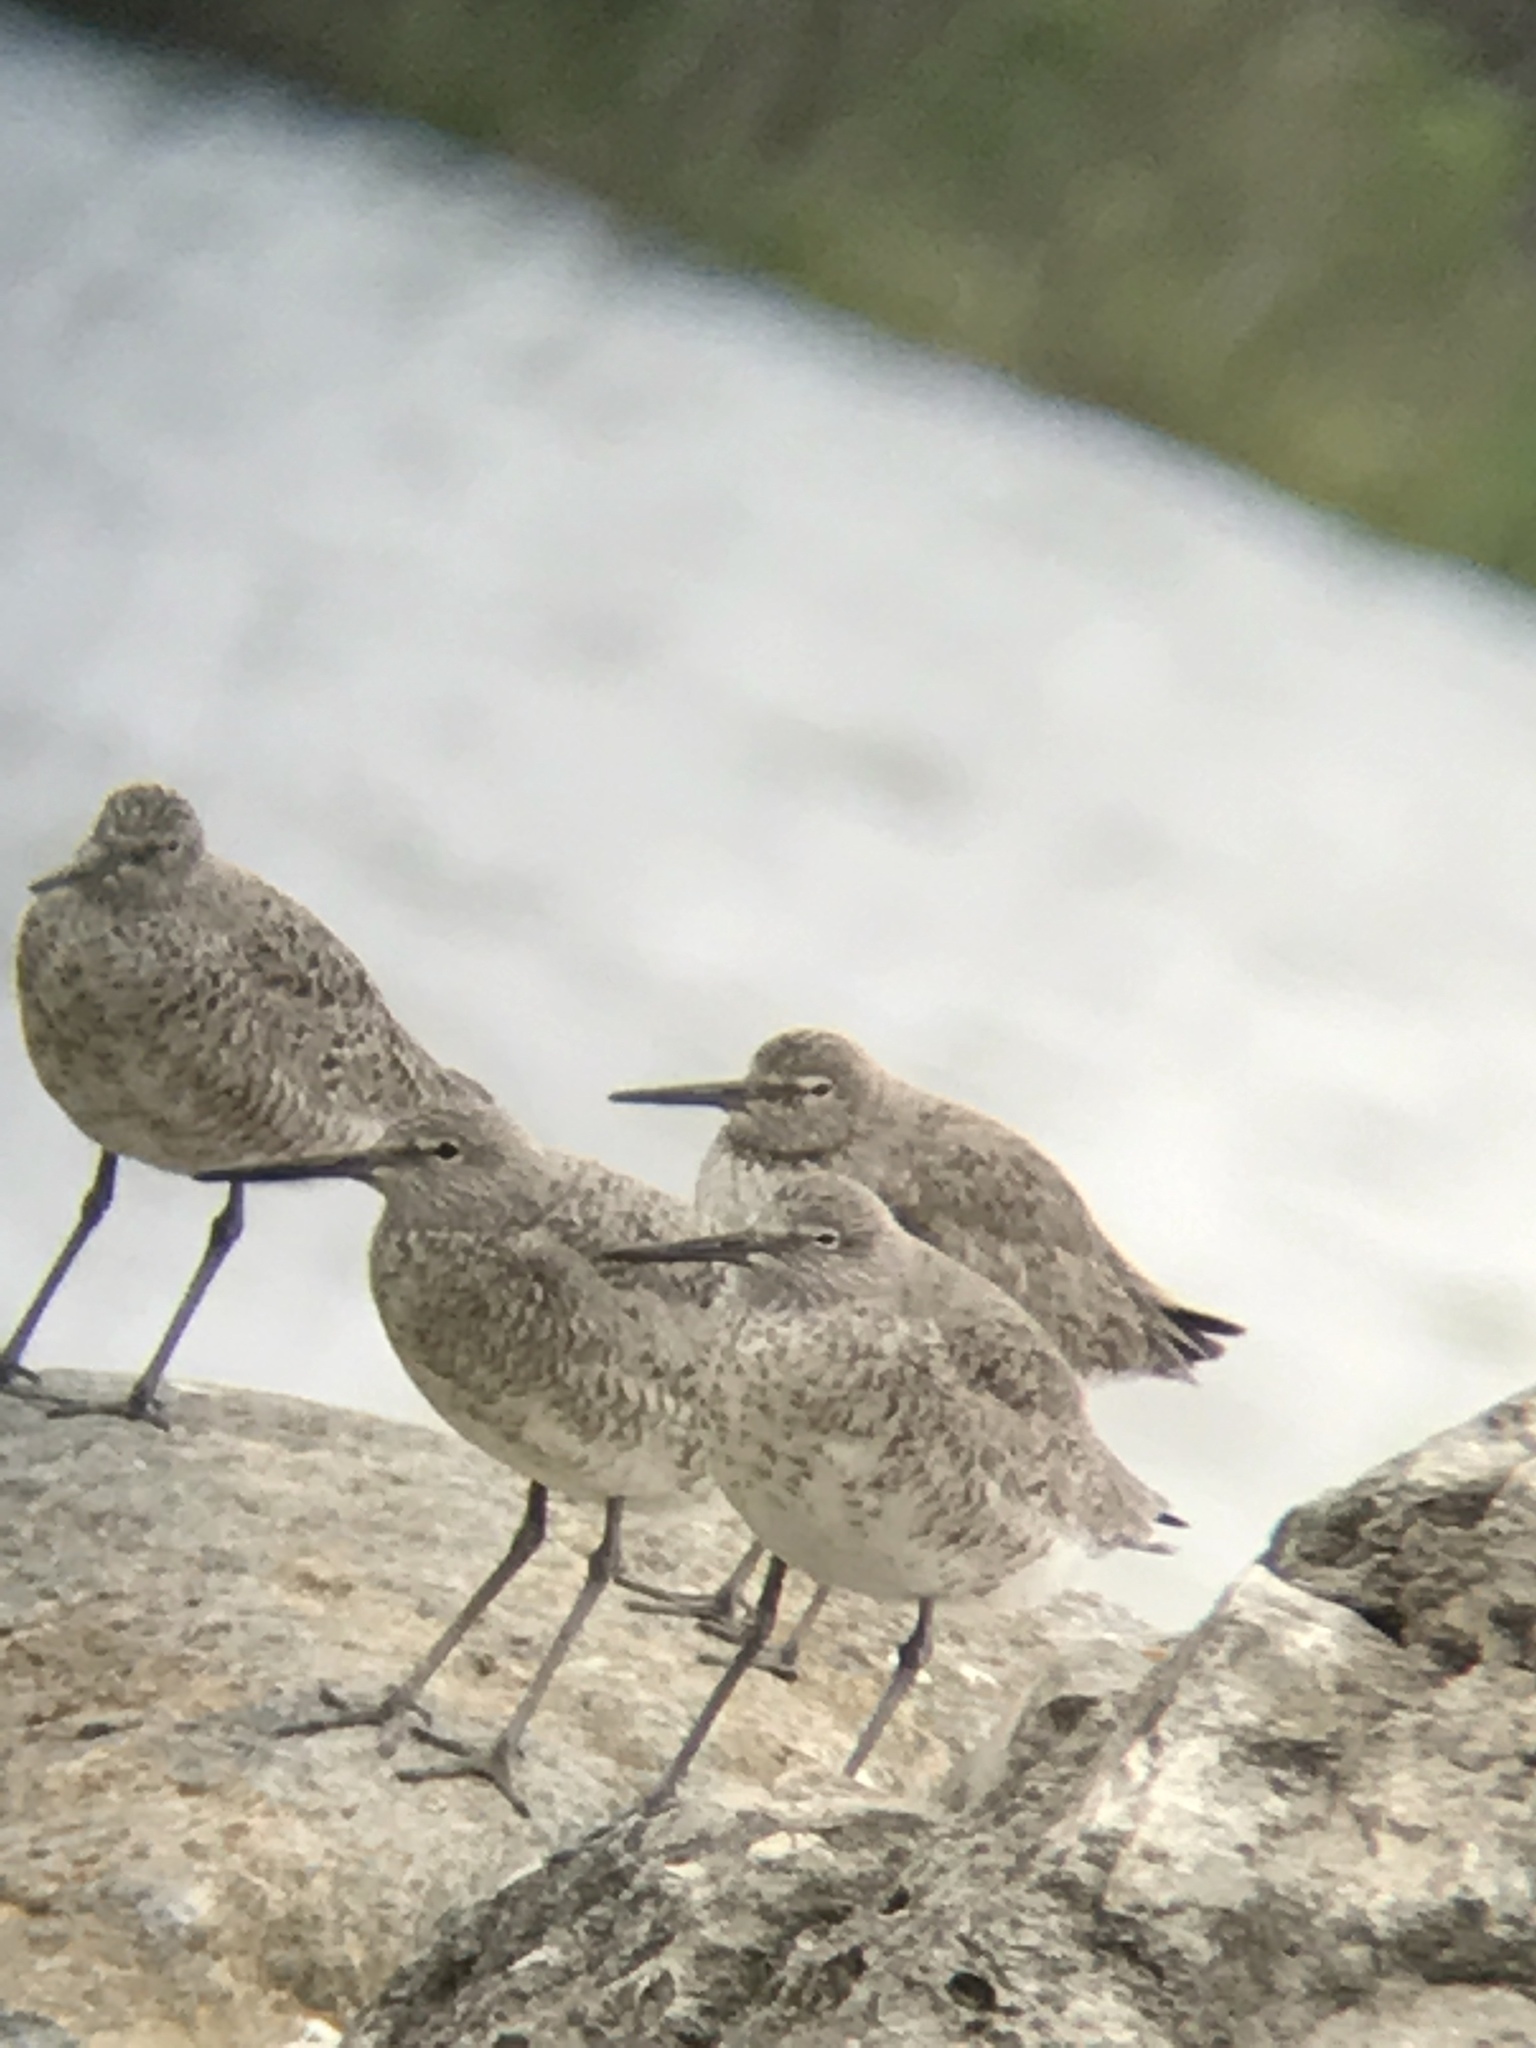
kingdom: Animalia
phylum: Chordata
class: Aves
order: Charadriiformes
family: Scolopacidae
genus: Tringa
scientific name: Tringa semipalmata
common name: Willet
